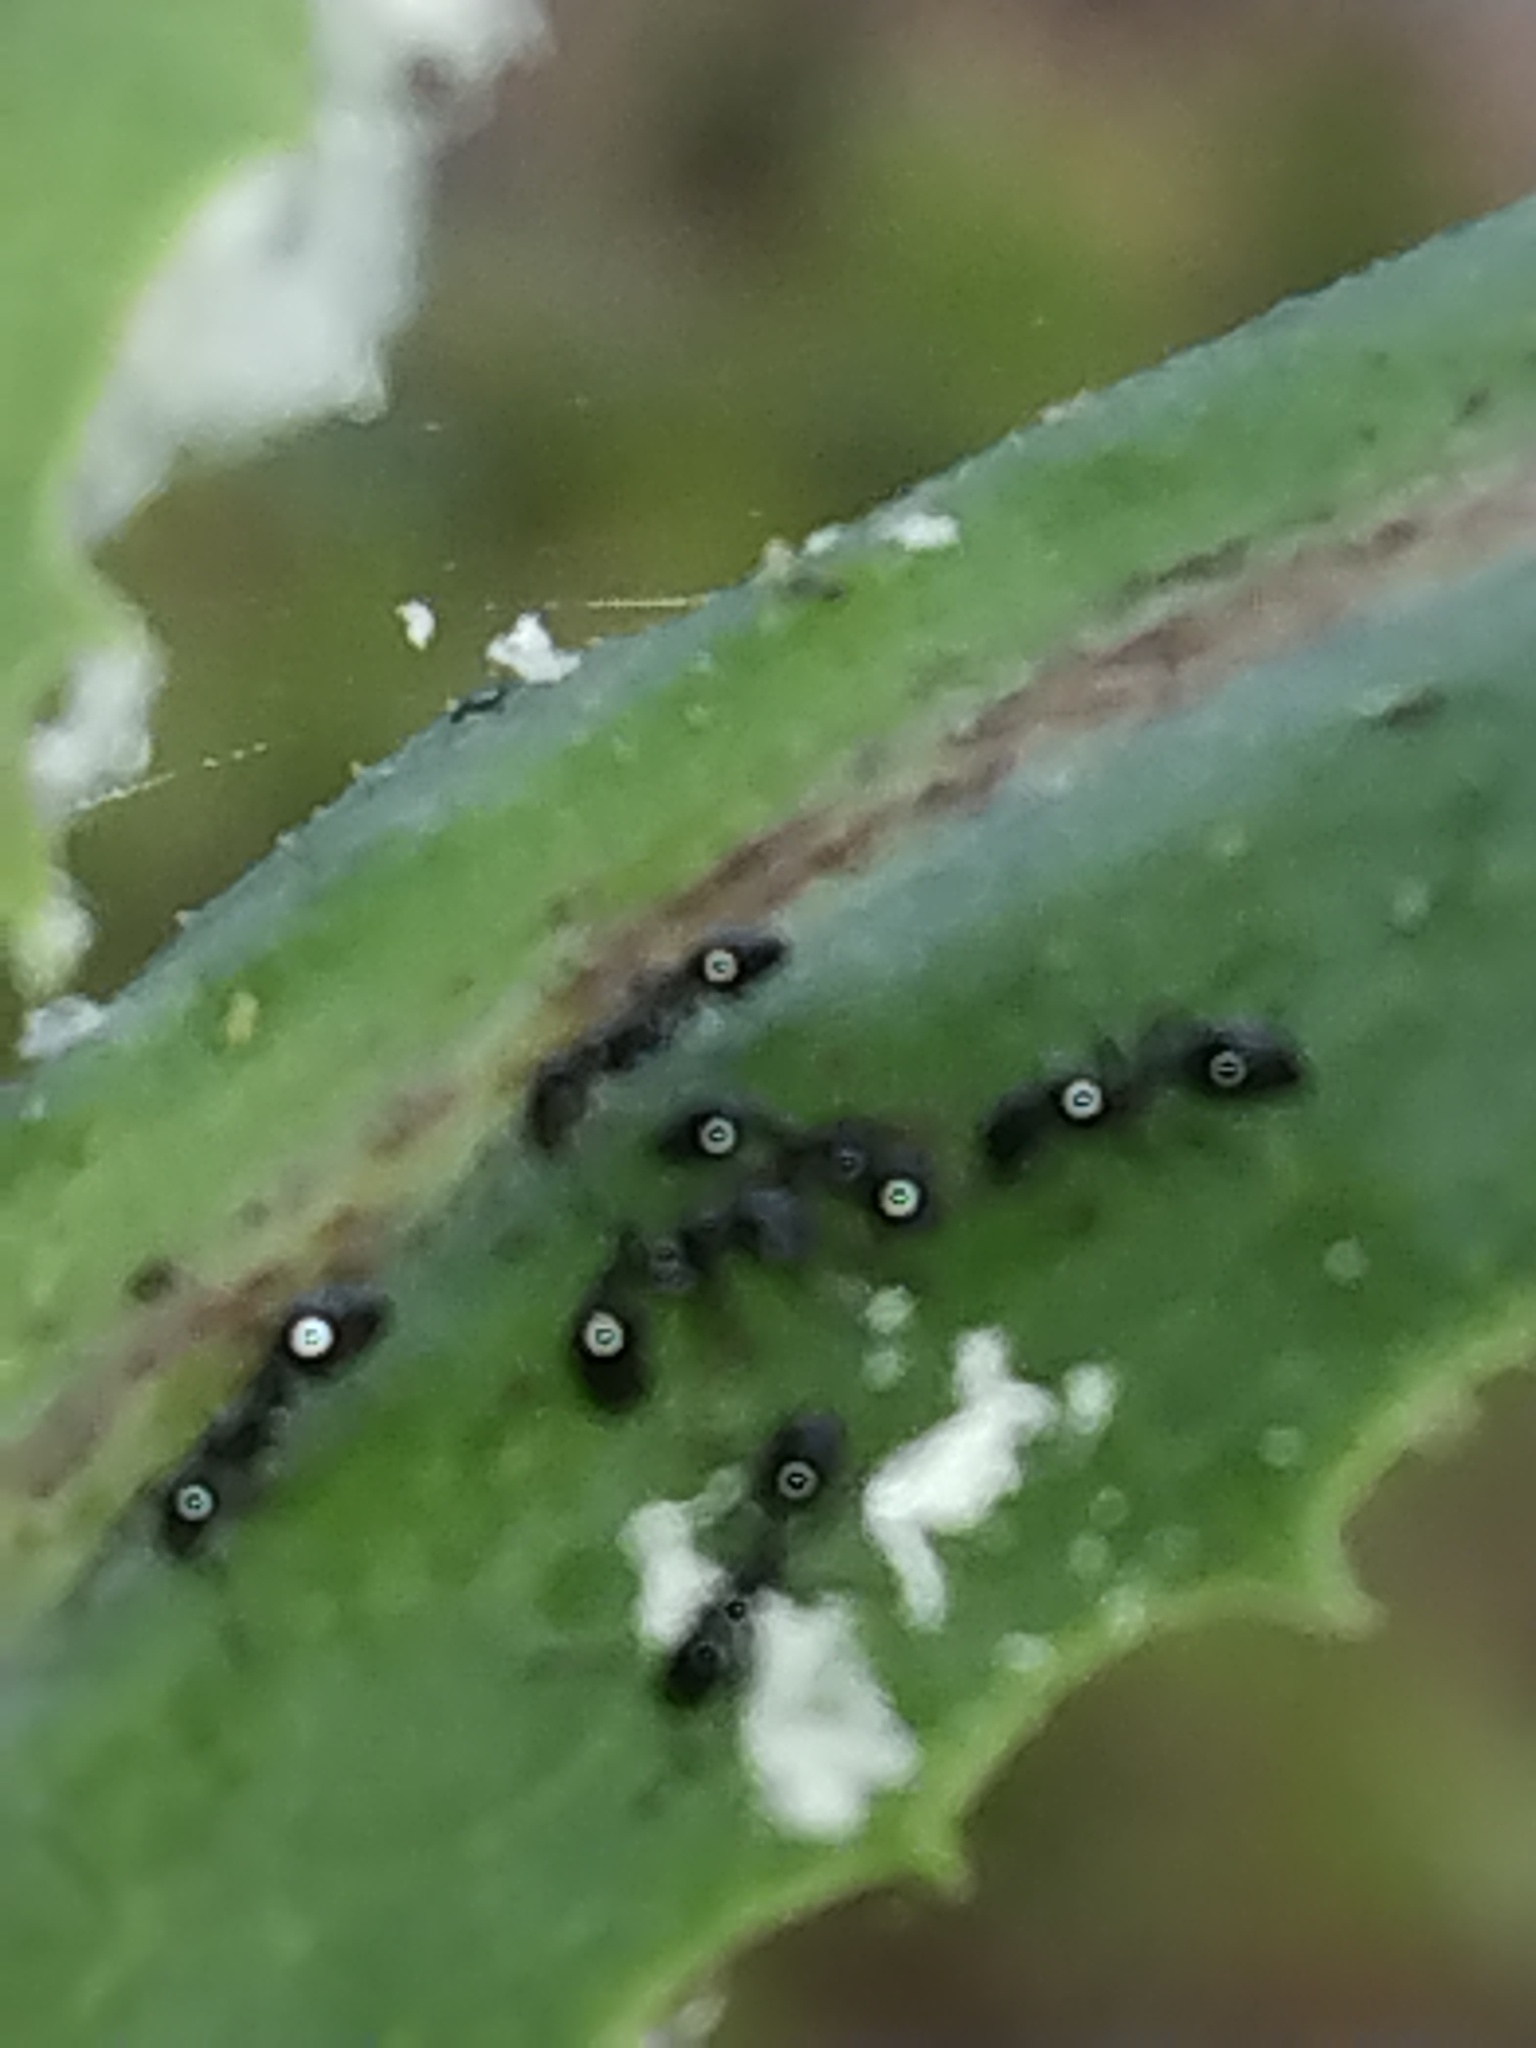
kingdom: Animalia
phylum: Arthropoda
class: Insecta
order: Hymenoptera
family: Formicidae
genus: Monomorium
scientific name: Monomorium minimum
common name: Little black ant
